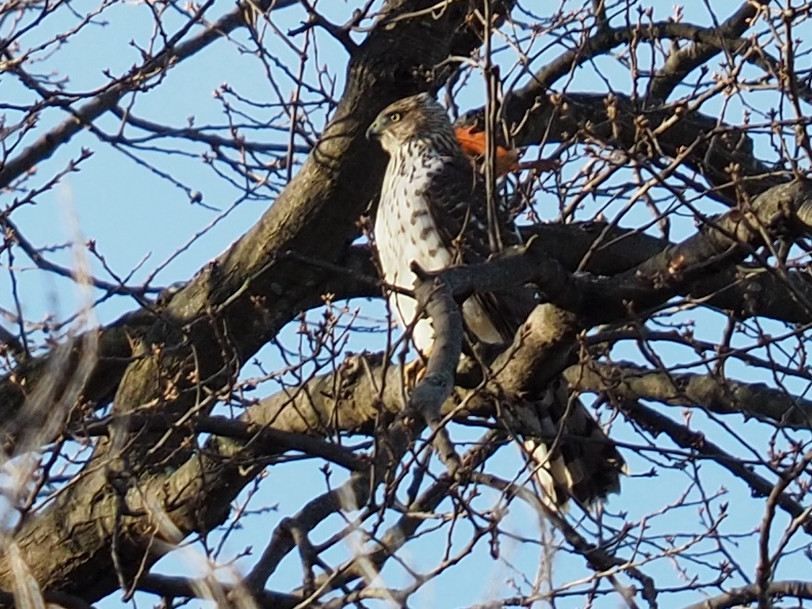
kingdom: Animalia
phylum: Chordata
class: Aves
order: Accipitriformes
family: Accipitridae
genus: Accipiter
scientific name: Accipiter cooperii
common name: Cooper's hawk
